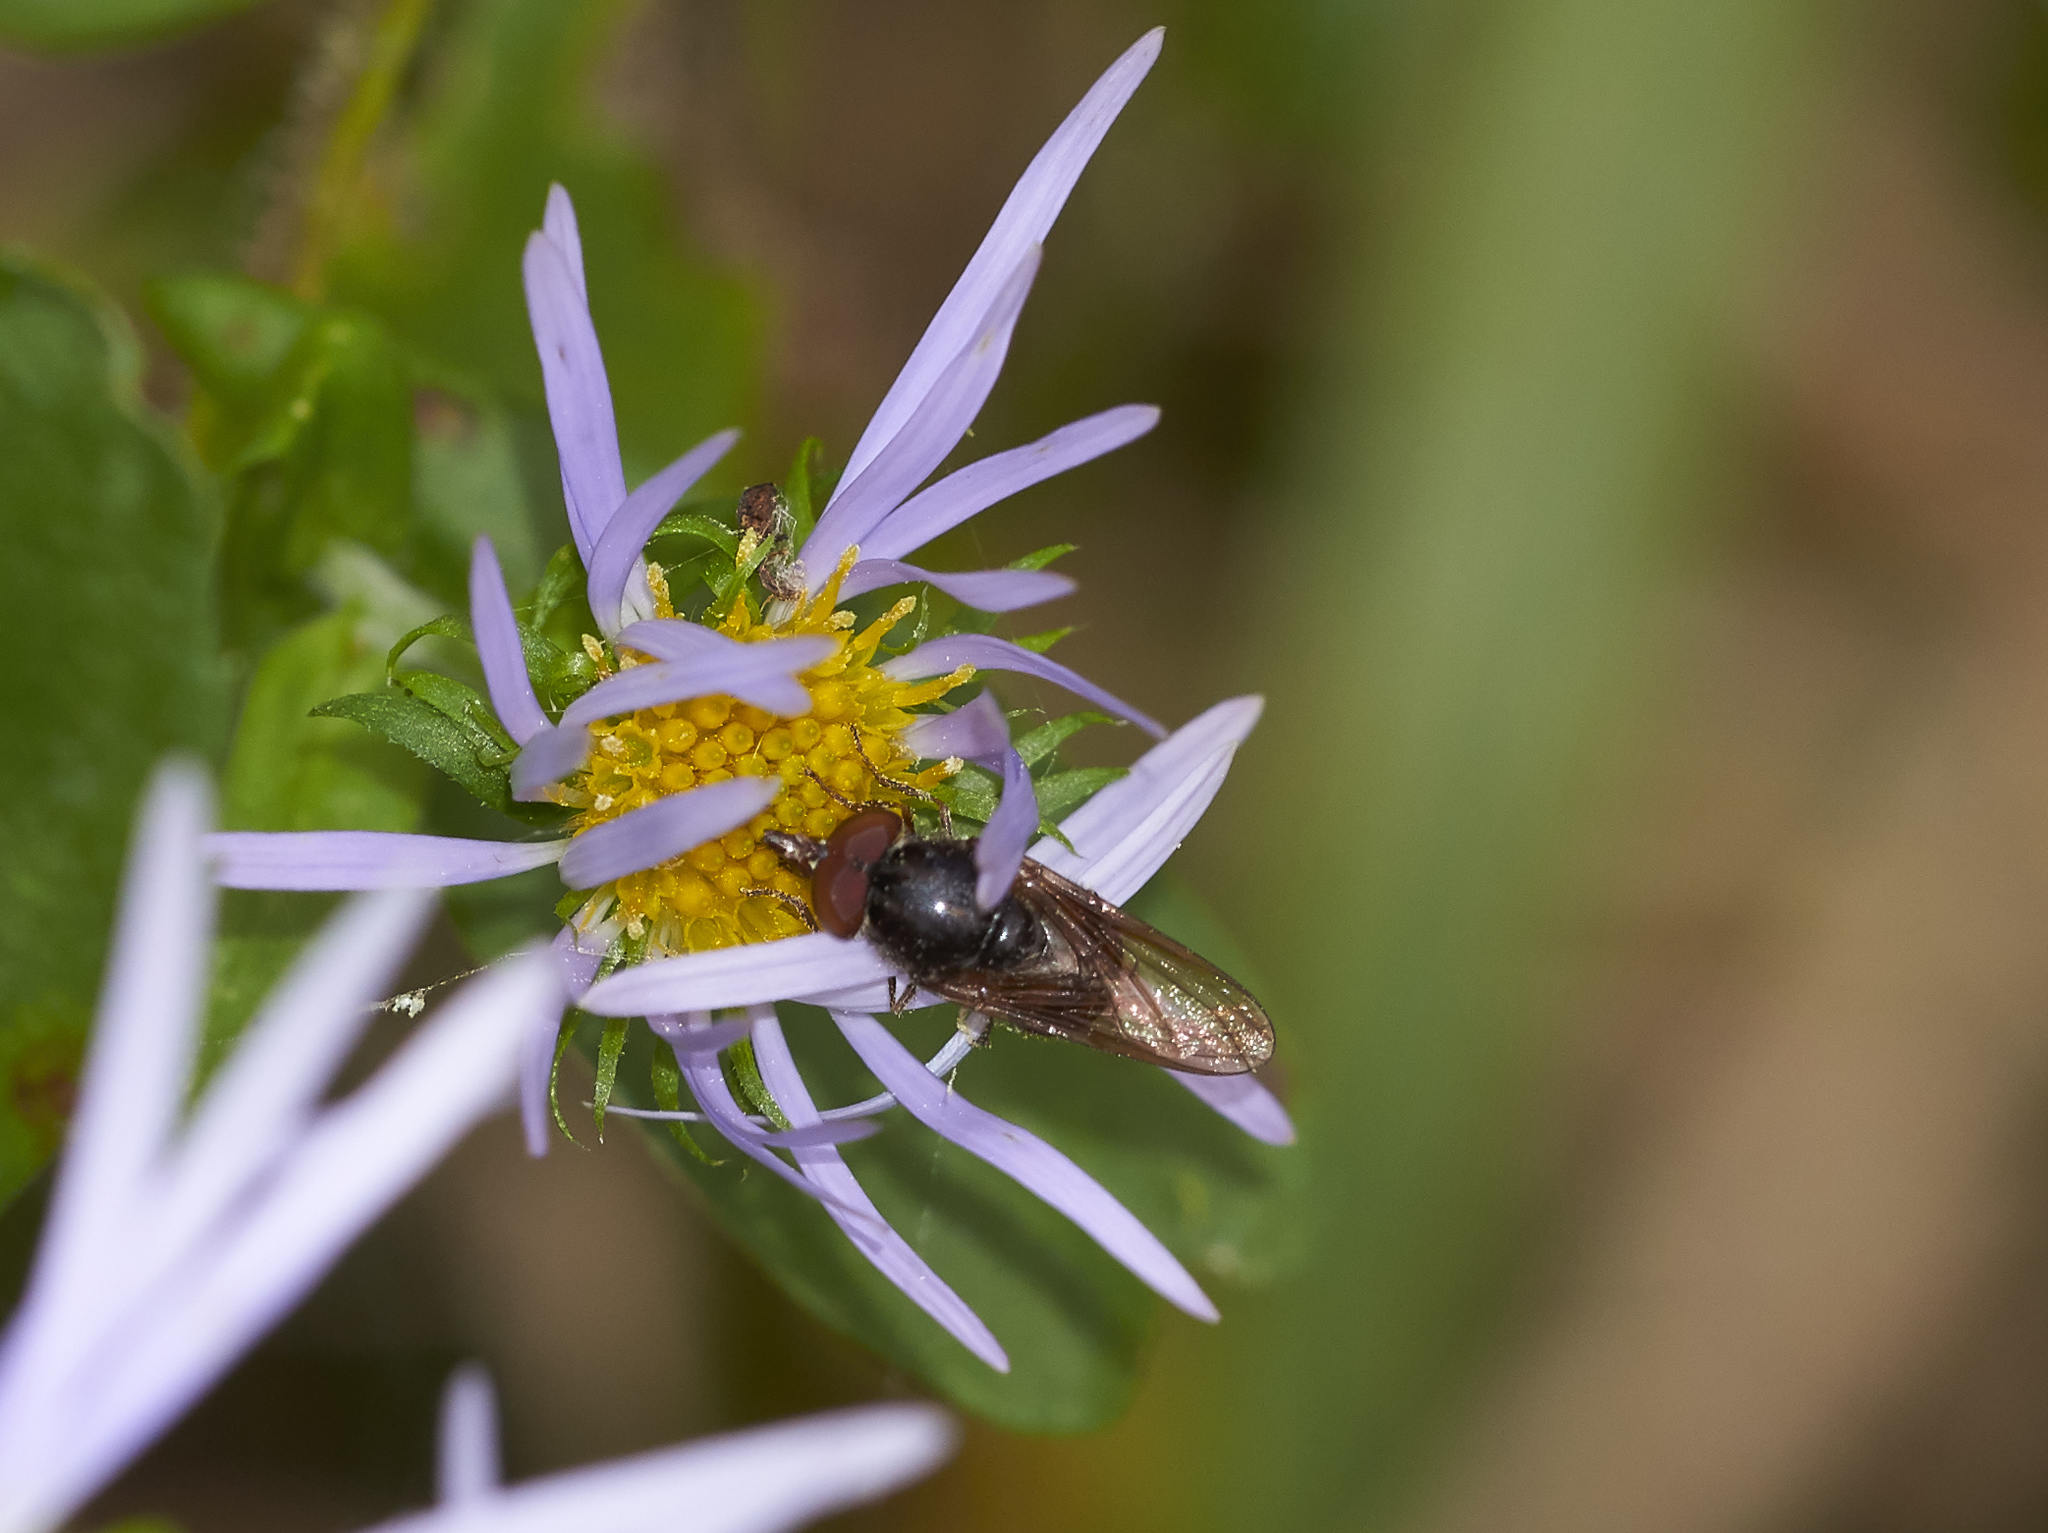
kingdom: Animalia
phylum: Arthropoda
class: Insecta
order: Diptera
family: Syrphidae
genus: Rhingia
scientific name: Rhingia nasica
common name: American snout fly
